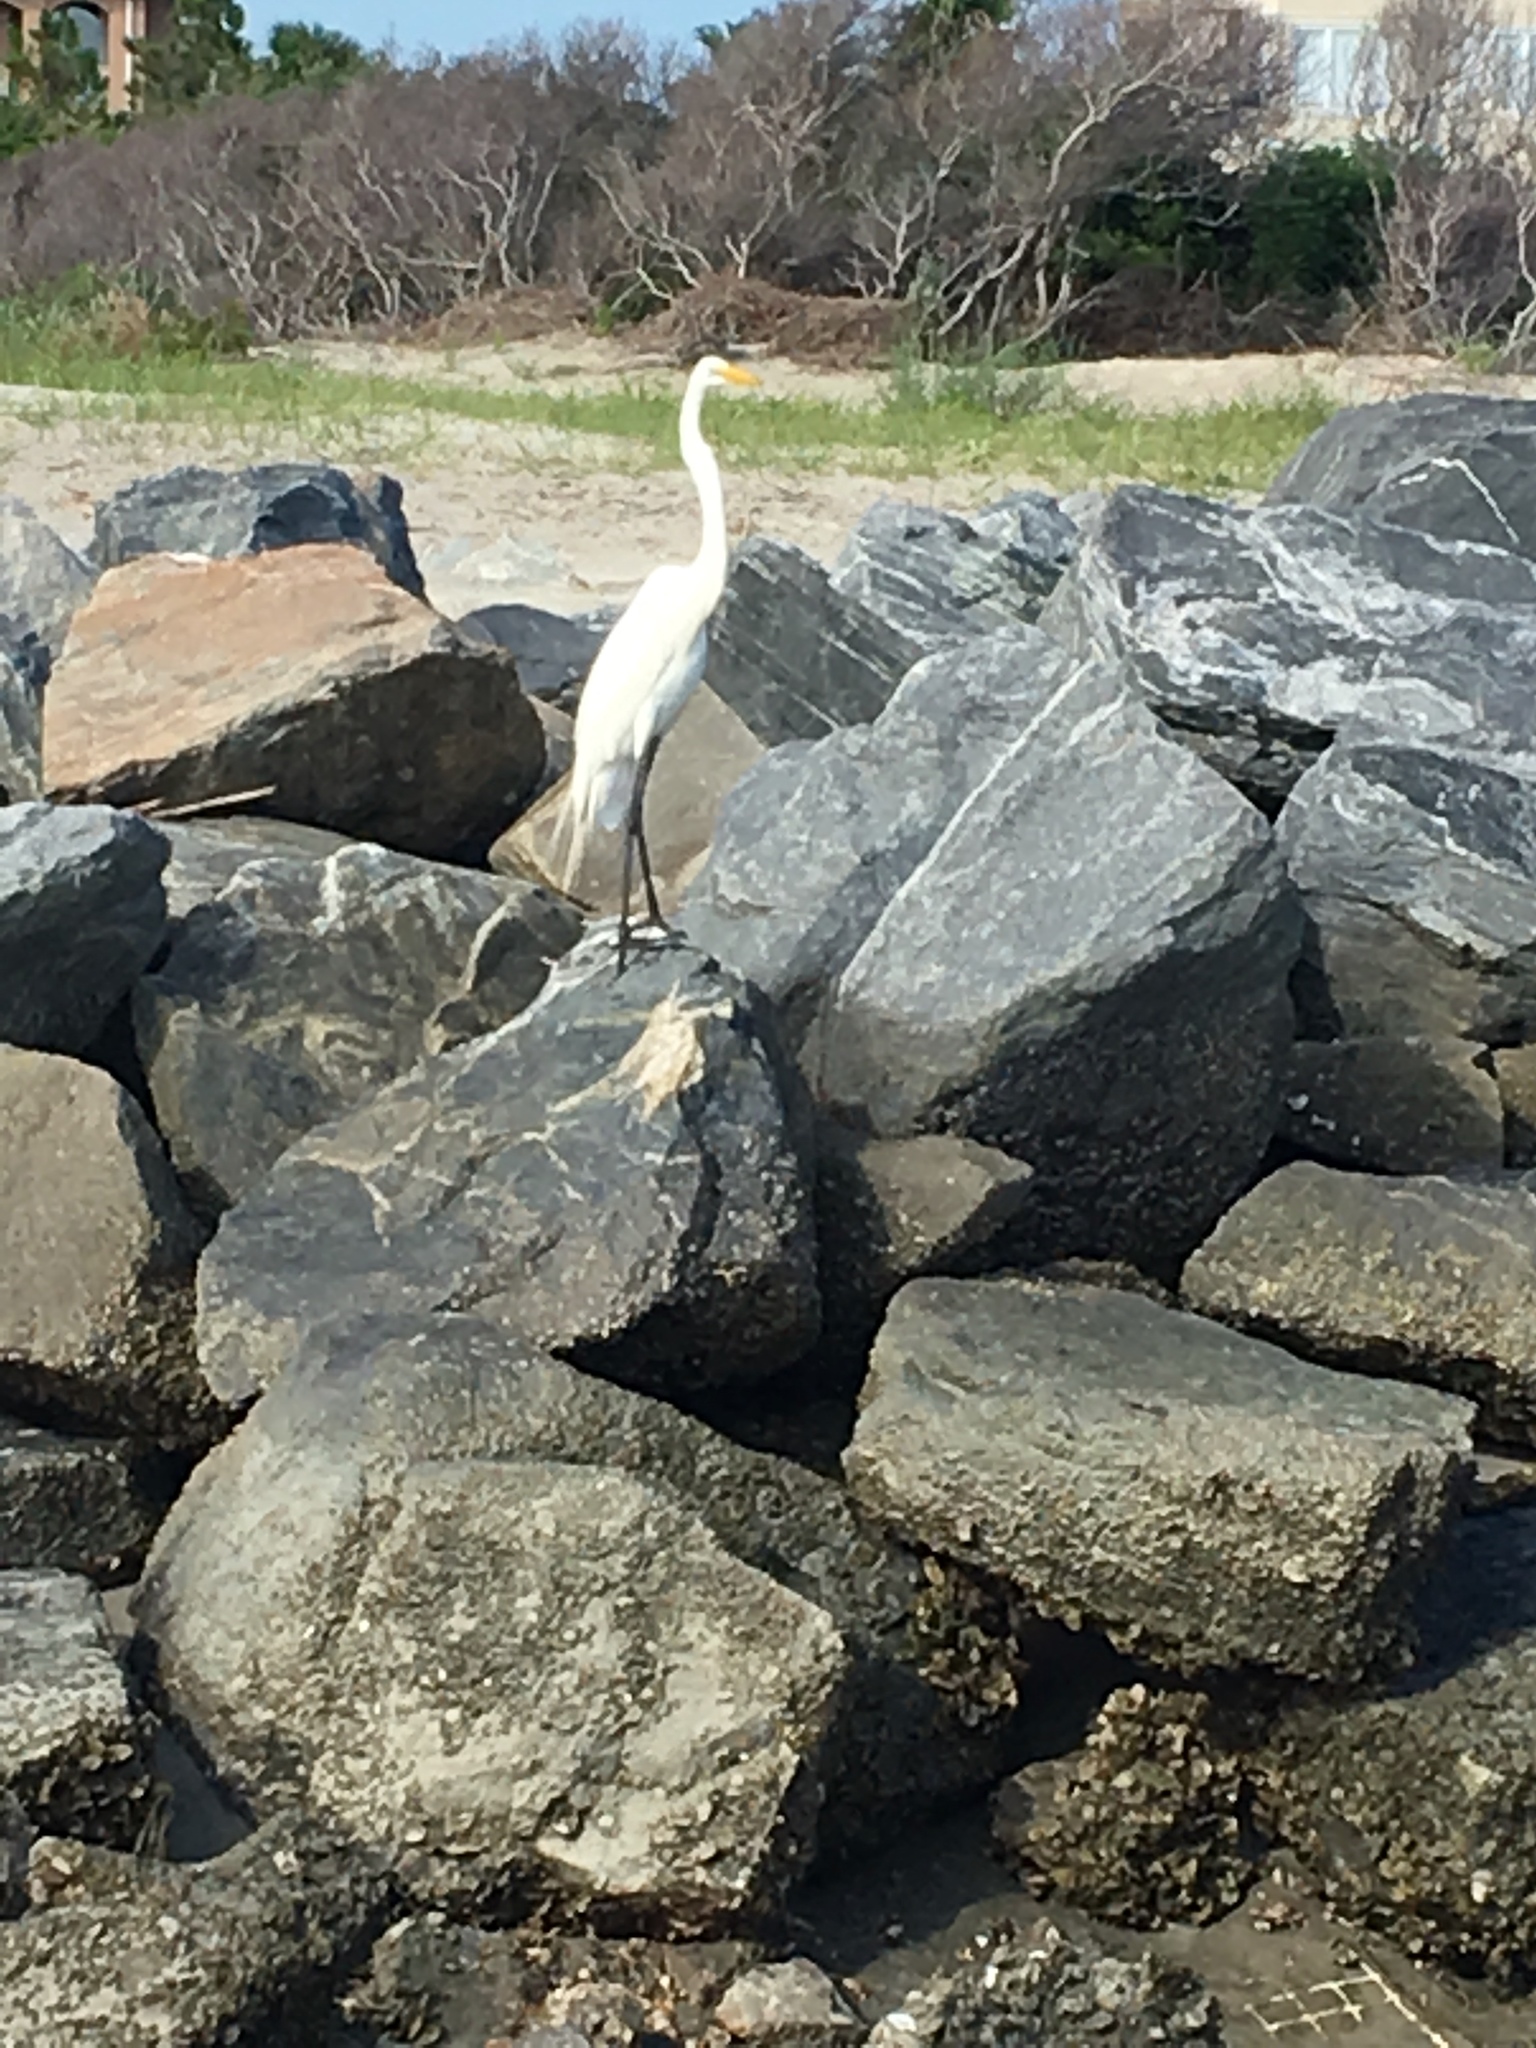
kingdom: Animalia
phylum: Chordata
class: Aves
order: Pelecaniformes
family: Ardeidae
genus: Ardea
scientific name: Ardea alba
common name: Great egret
